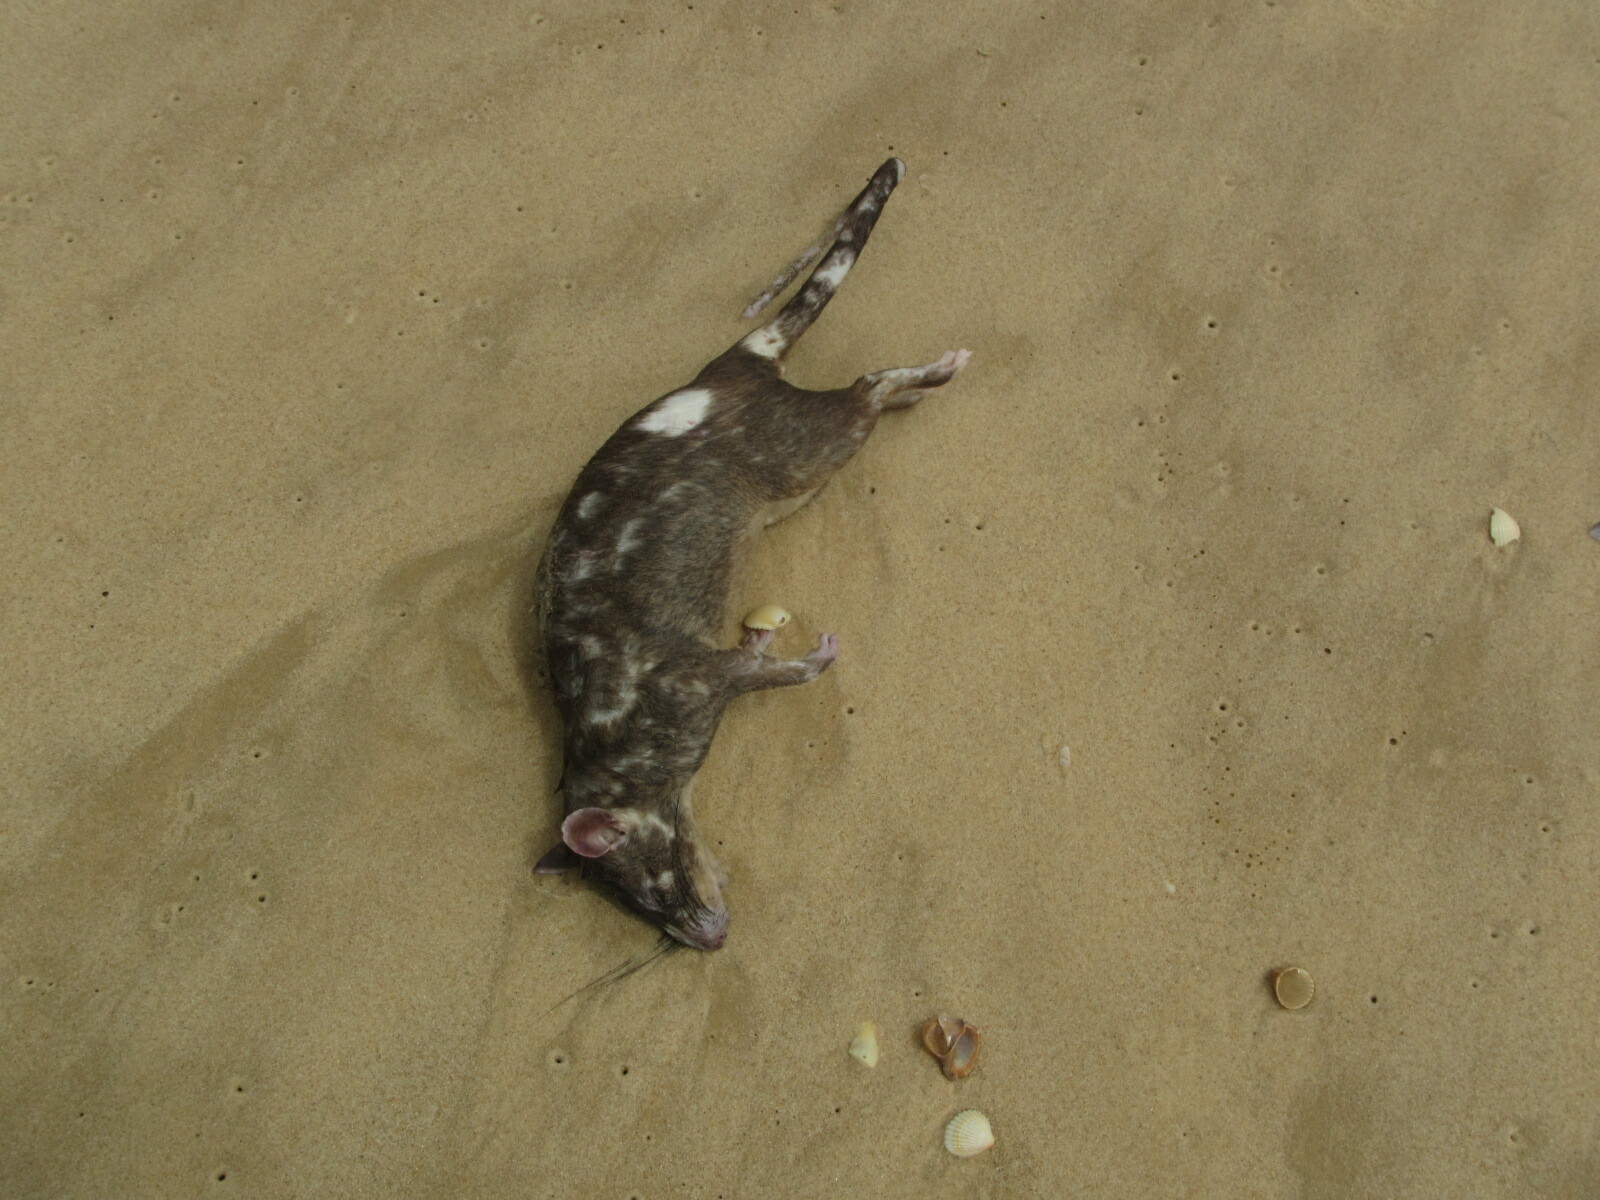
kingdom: Animalia
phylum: Chordata
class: Mammalia
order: Rodentia
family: Nesomyidae
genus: Cricetomys
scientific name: Cricetomys gambianus
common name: Northern giant pouched rat
